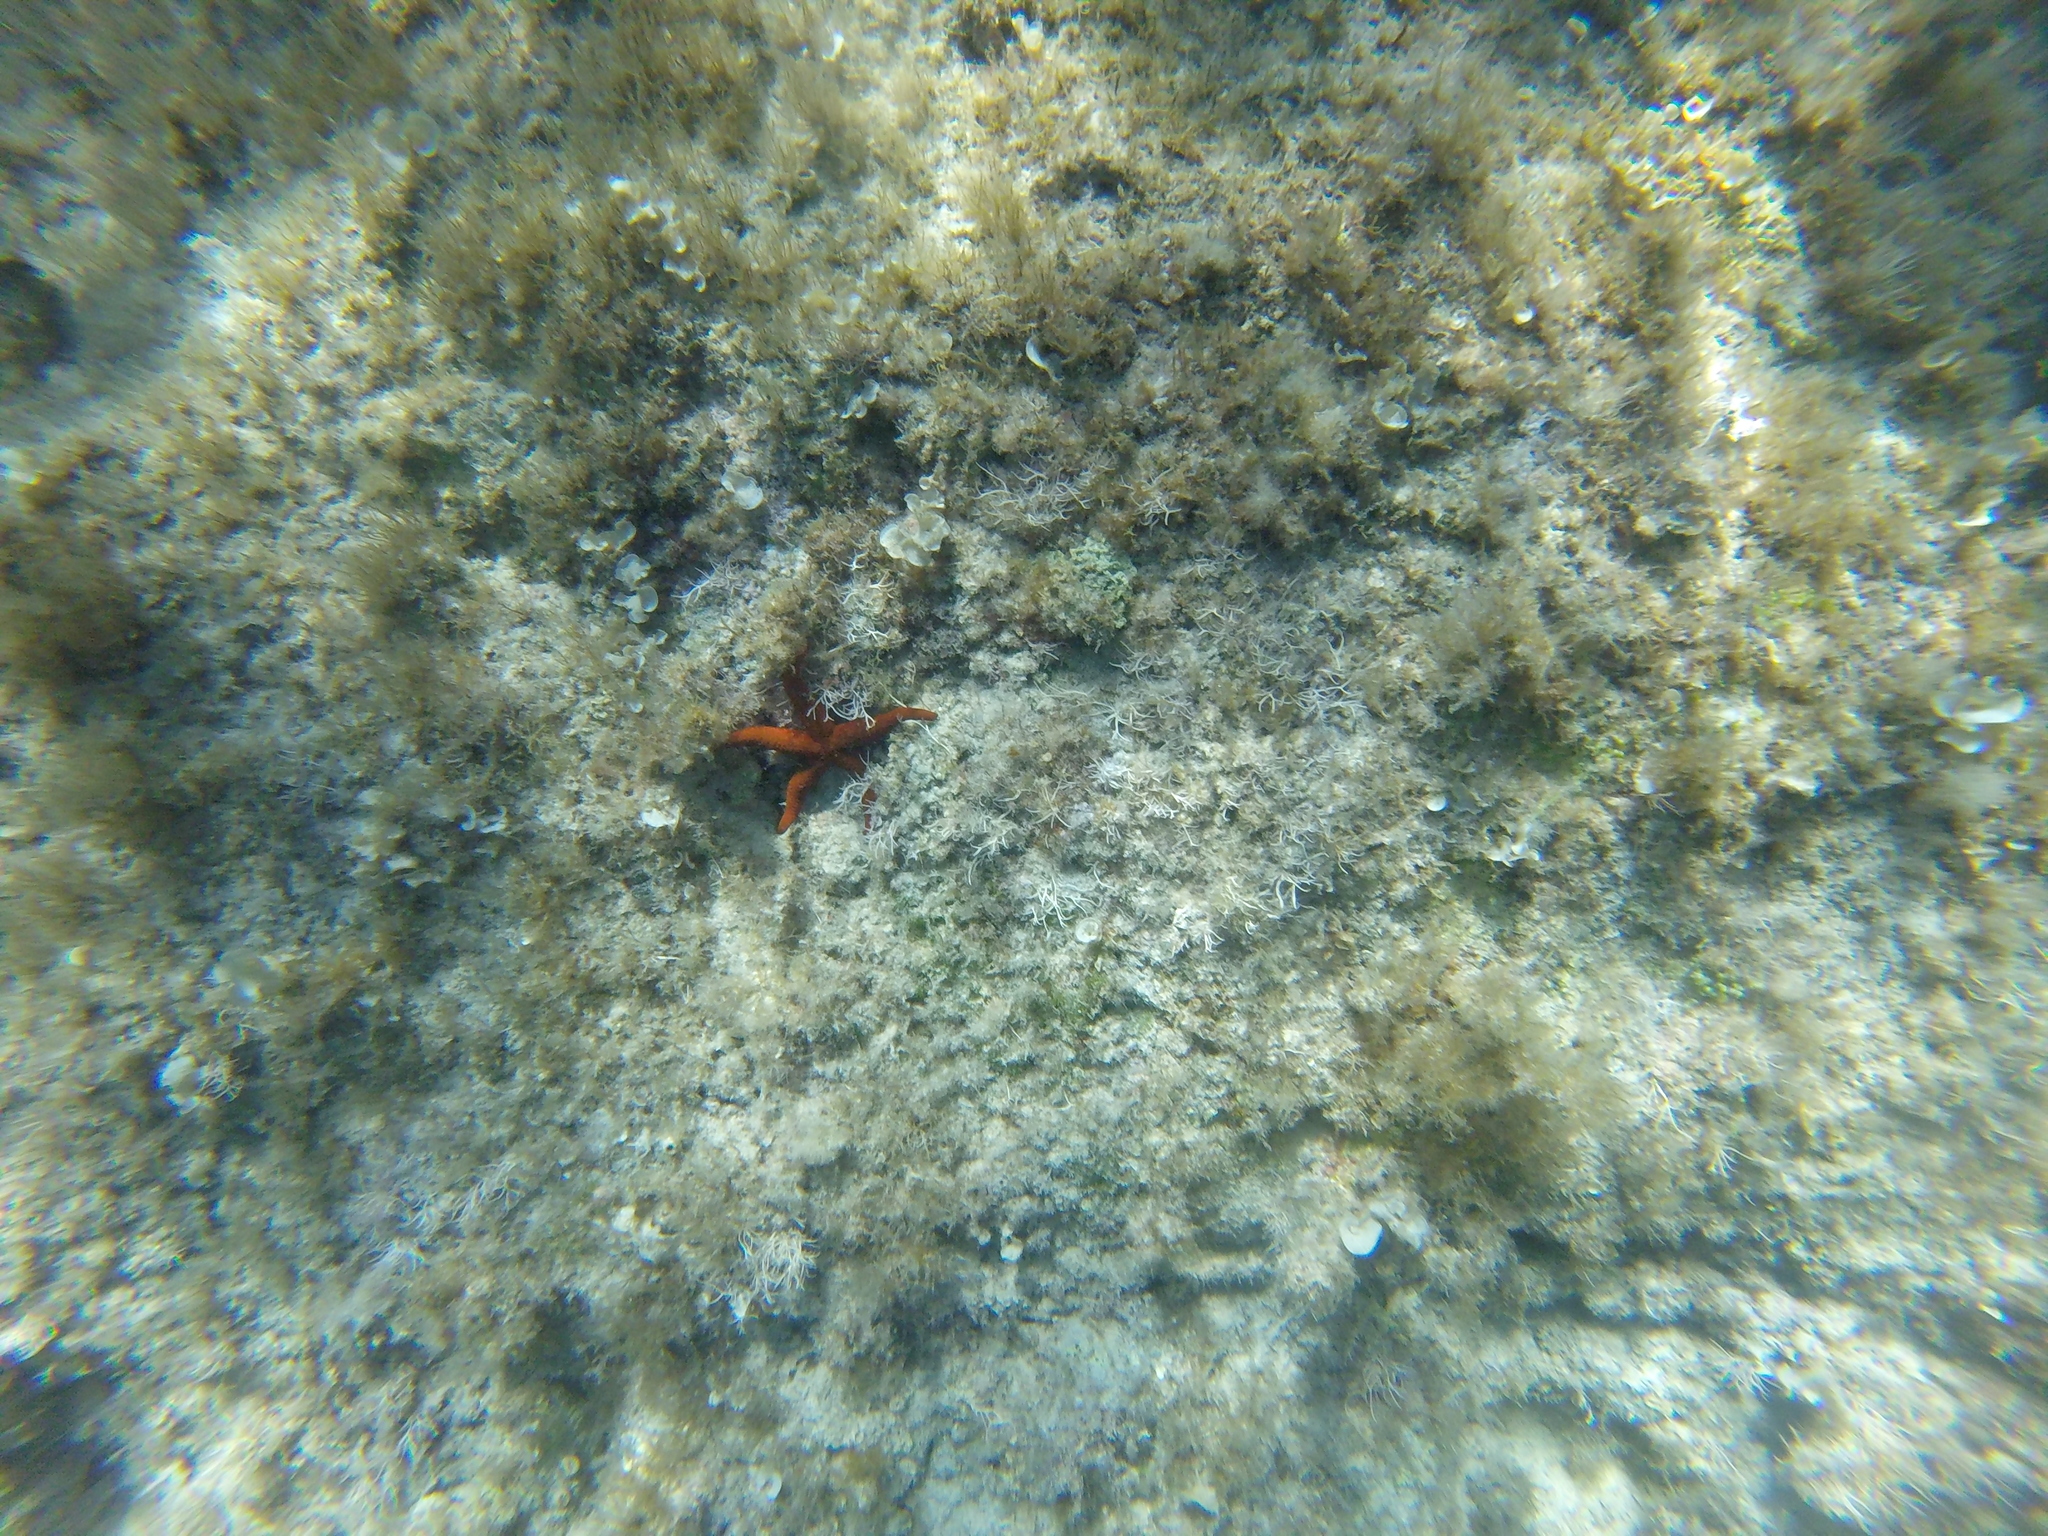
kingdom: Animalia
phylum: Echinodermata
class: Asteroidea
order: Spinulosida
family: Echinasteridae
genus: Echinaster
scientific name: Echinaster sepositus
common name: Red starfish
